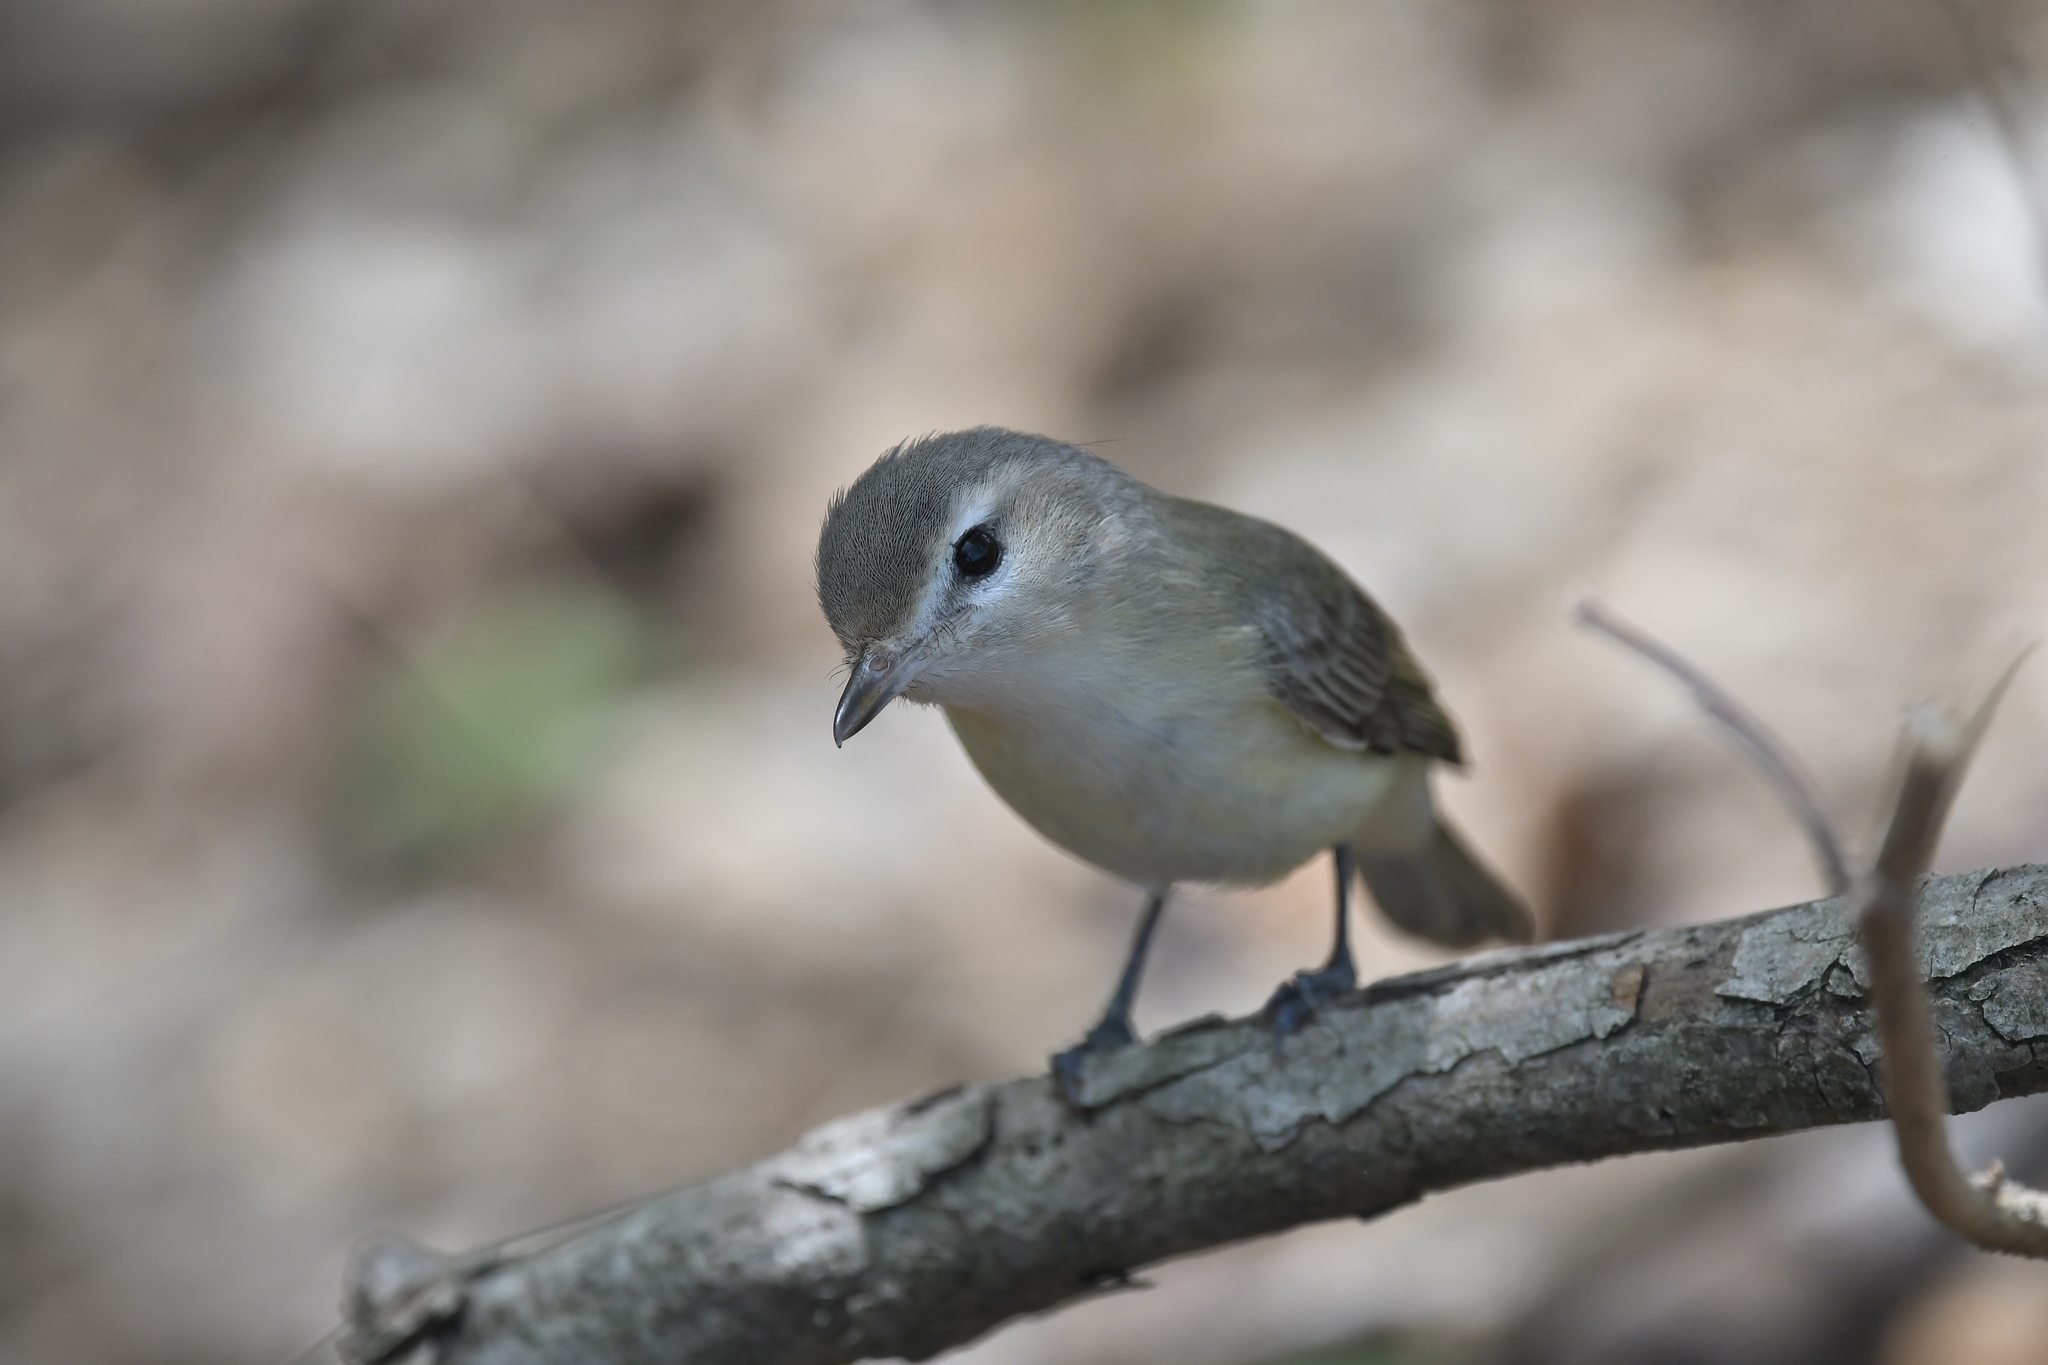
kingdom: Animalia
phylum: Chordata
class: Aves
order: Passeriformes
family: Vireonidae
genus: Vireo
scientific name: Vireo gilvus
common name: Warbling vireo
